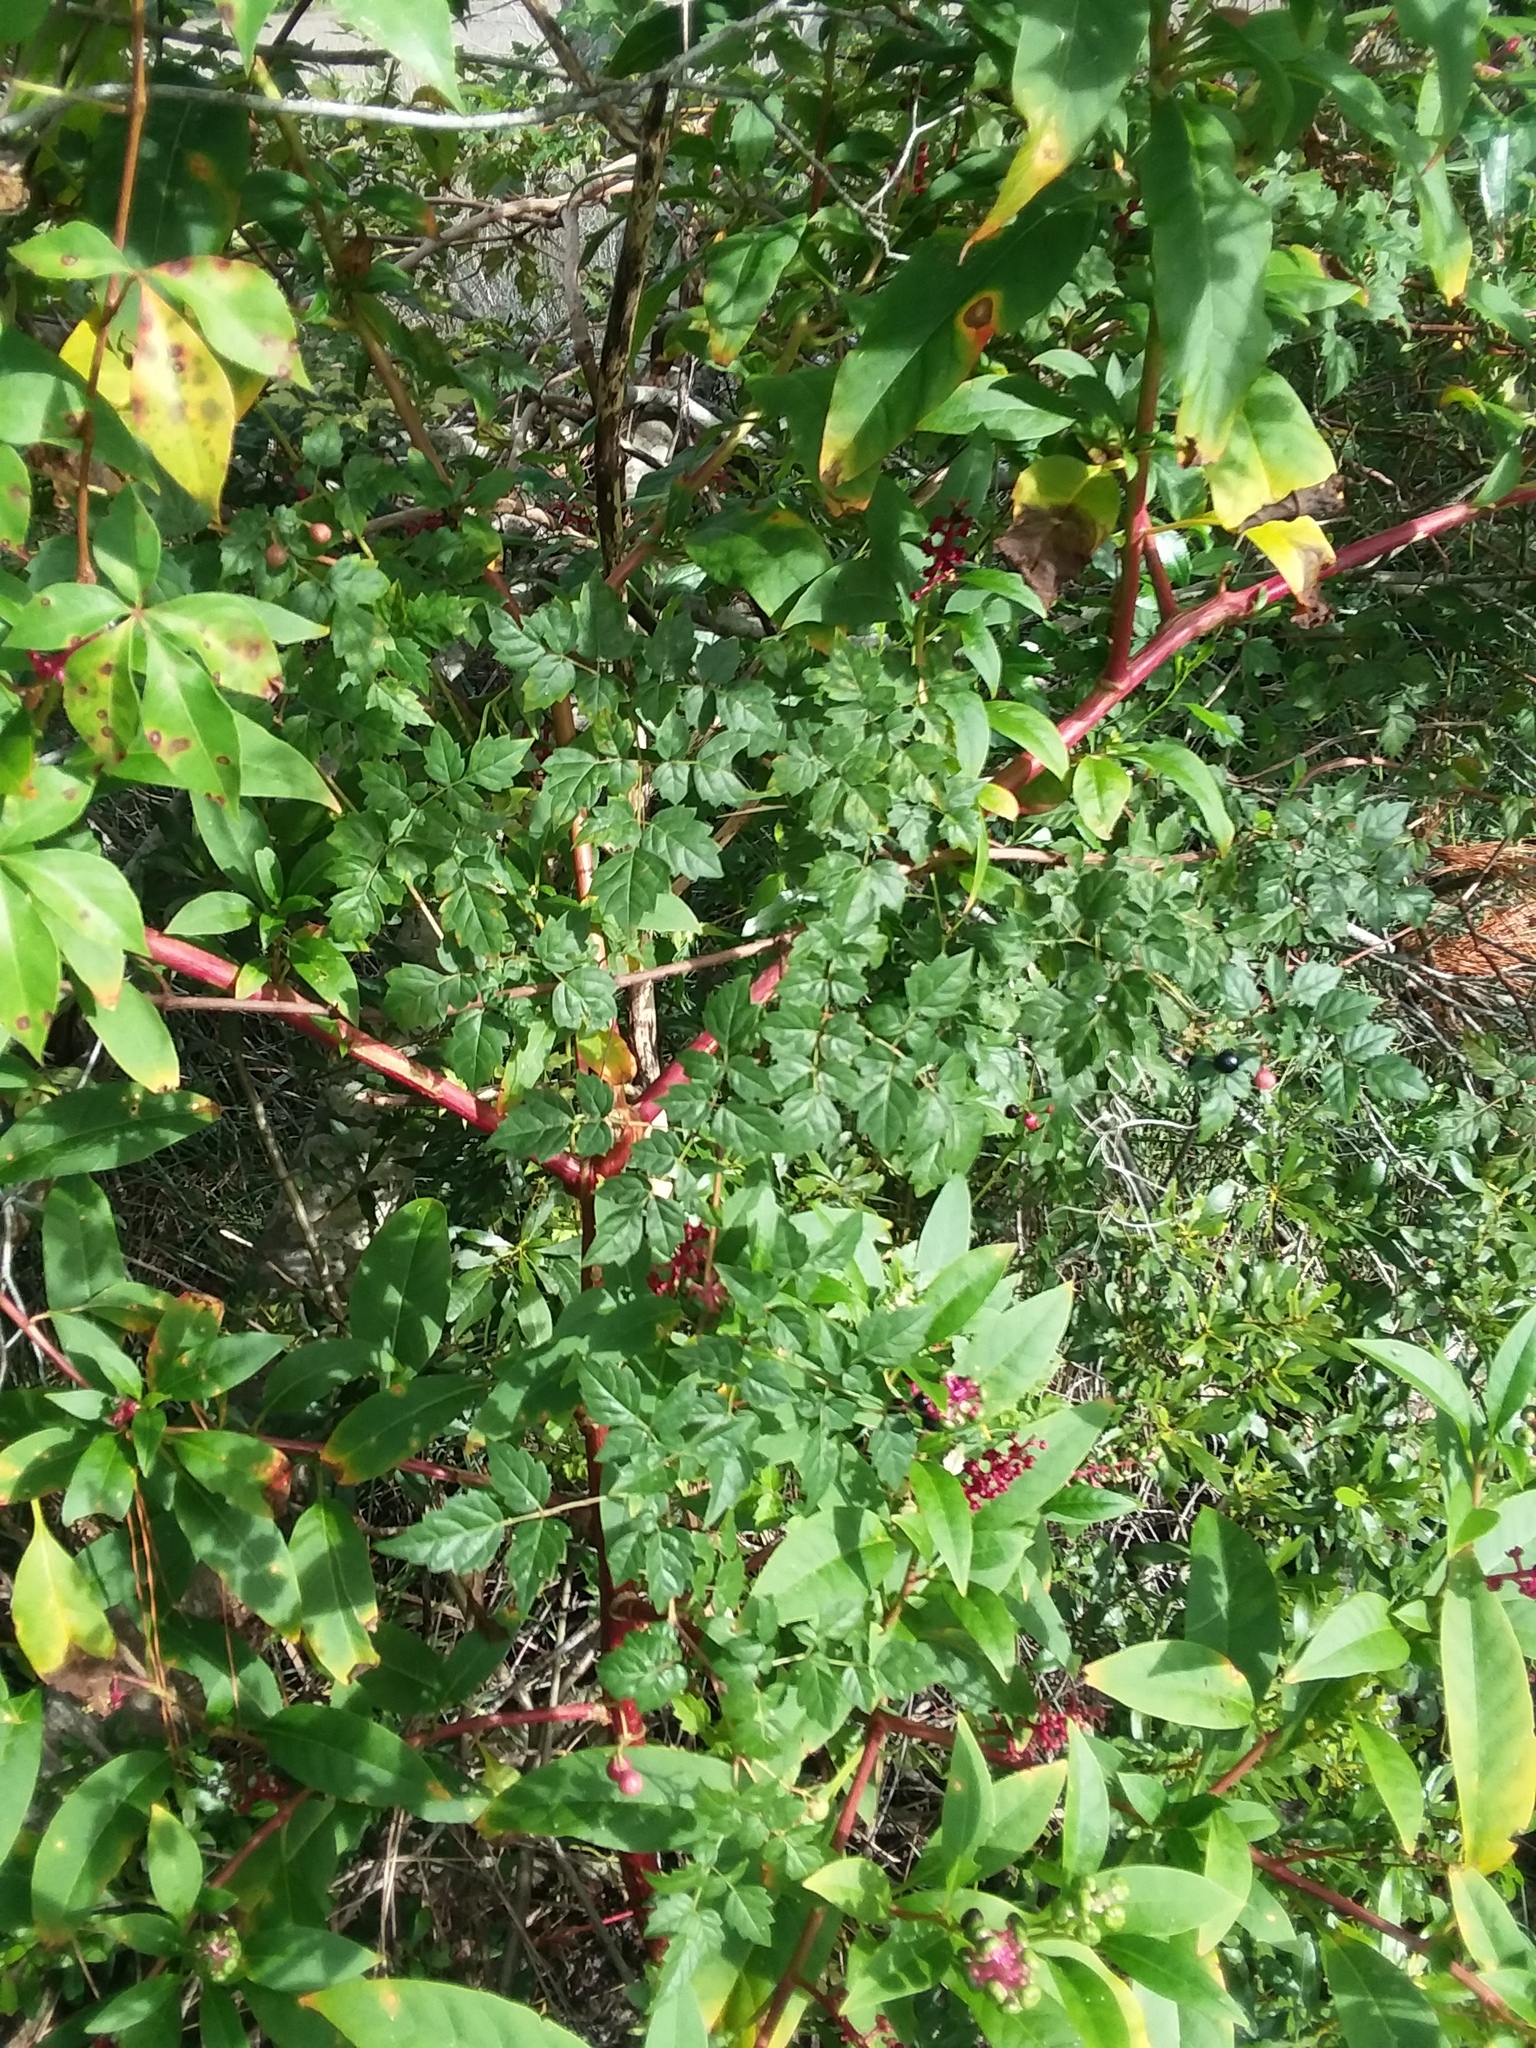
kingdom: Plantae
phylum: Tracheophyta
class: Magnoliopsida
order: Vitales
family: Vitaceae
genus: Nekemias
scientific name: Nekemias arborea
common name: Peppervine
